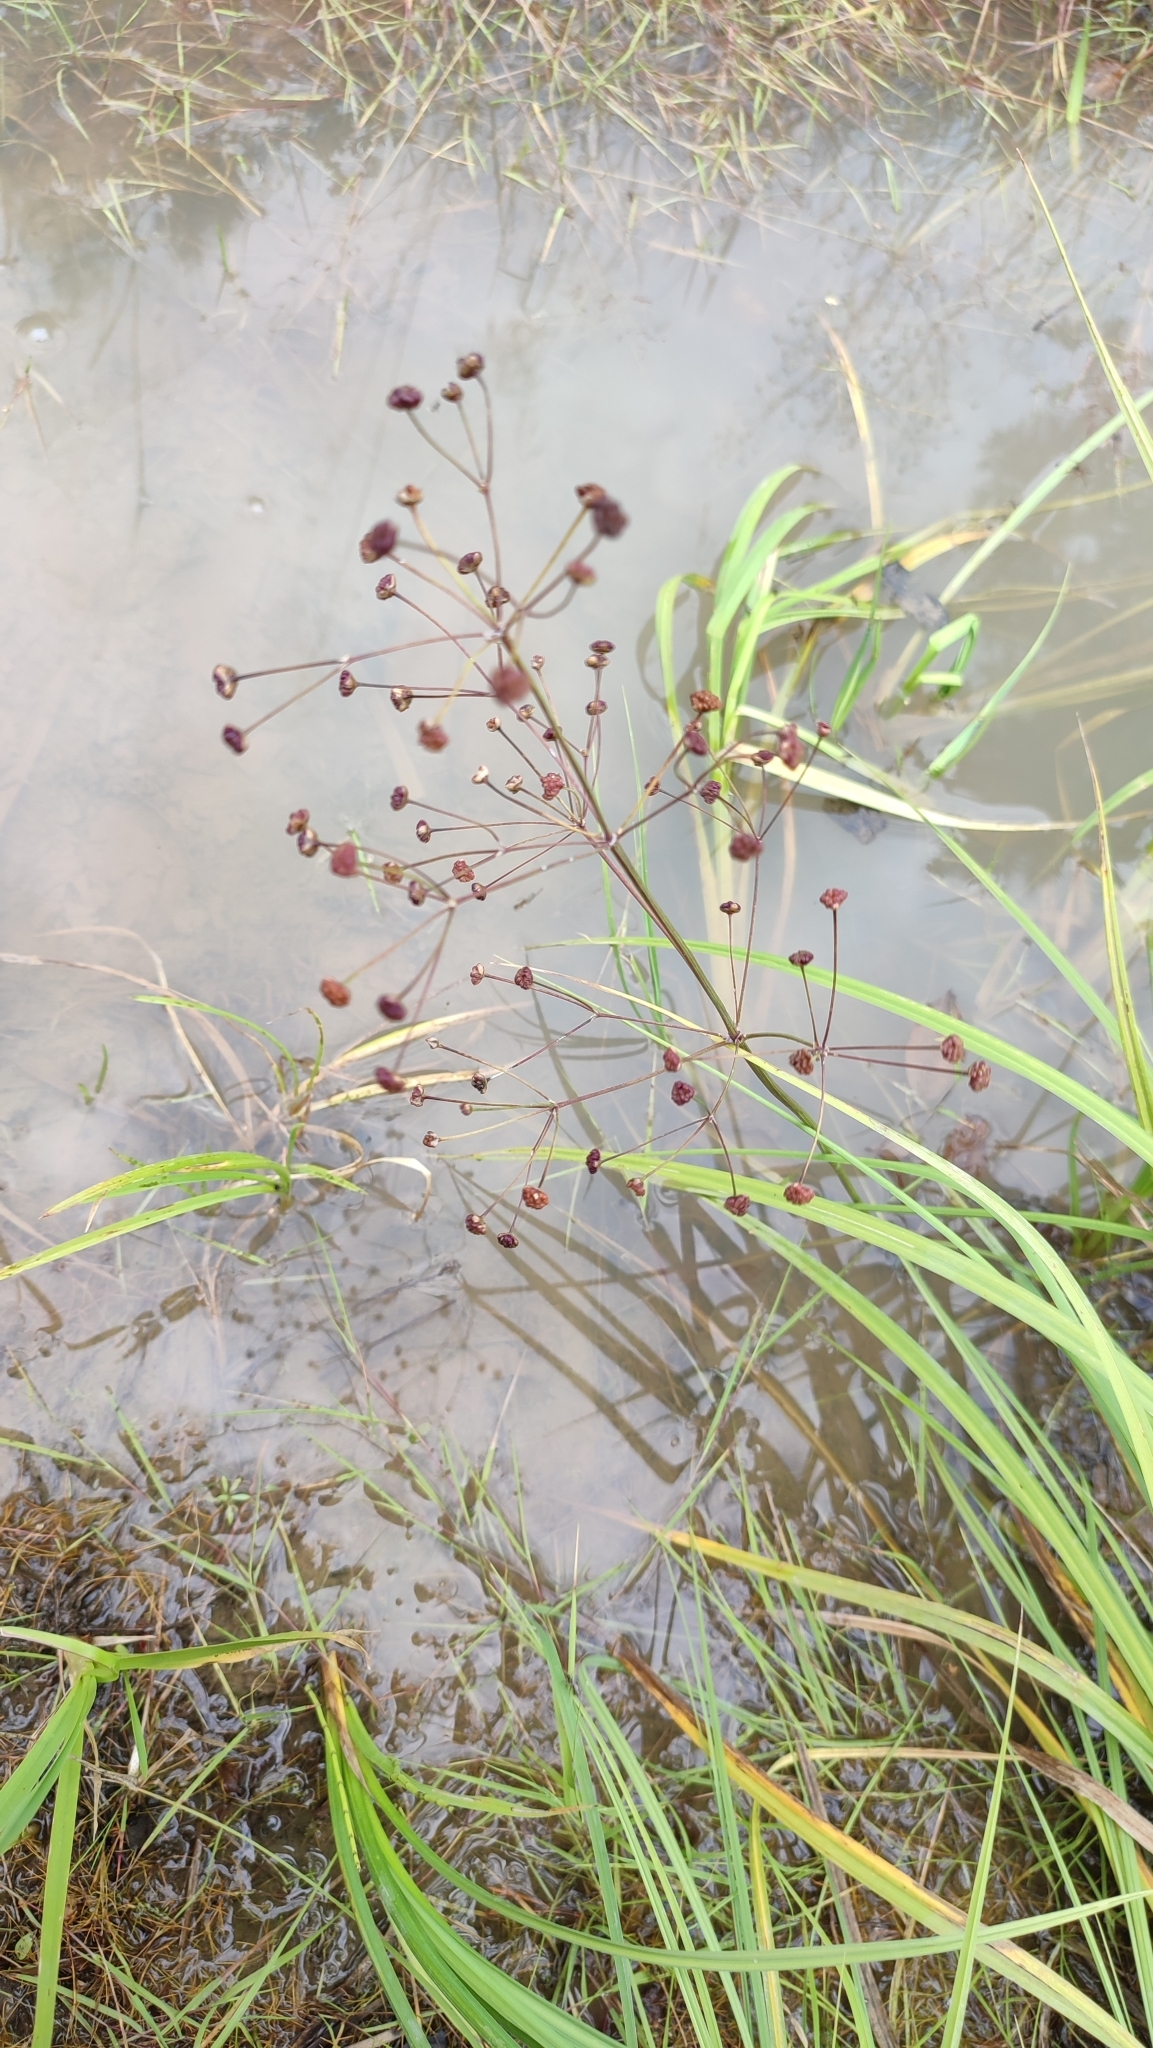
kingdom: Plantae
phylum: Tracheophyta
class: Liliopsida
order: Alismatales
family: Alismataceae
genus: Alisma
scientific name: Alisma plantago-aquatica
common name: Water-plantain
